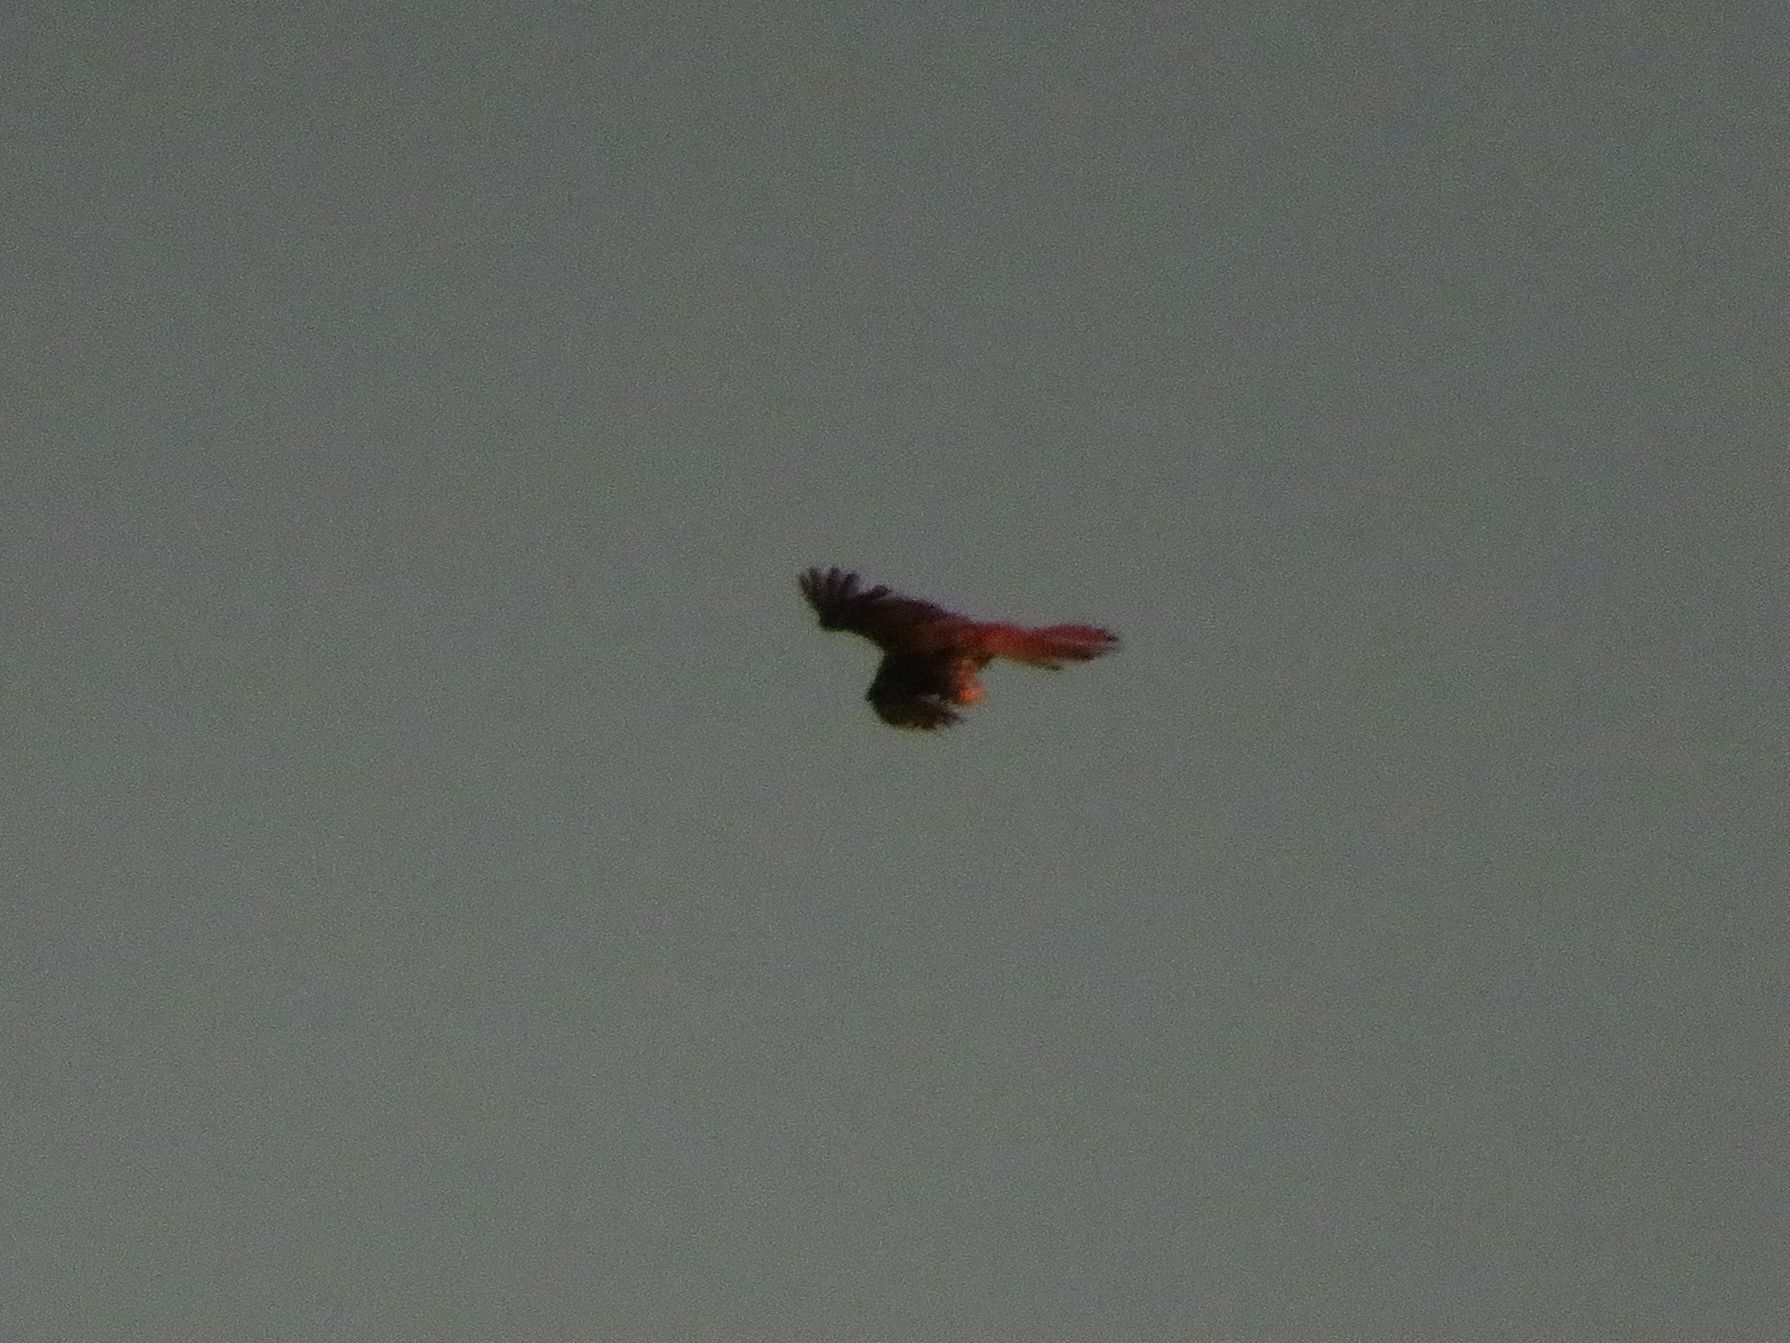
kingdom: Animalia
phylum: Chordata
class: Aves
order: Falconiformes
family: Falconidae
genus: Falco
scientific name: Falco sparverius
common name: American kestrel
